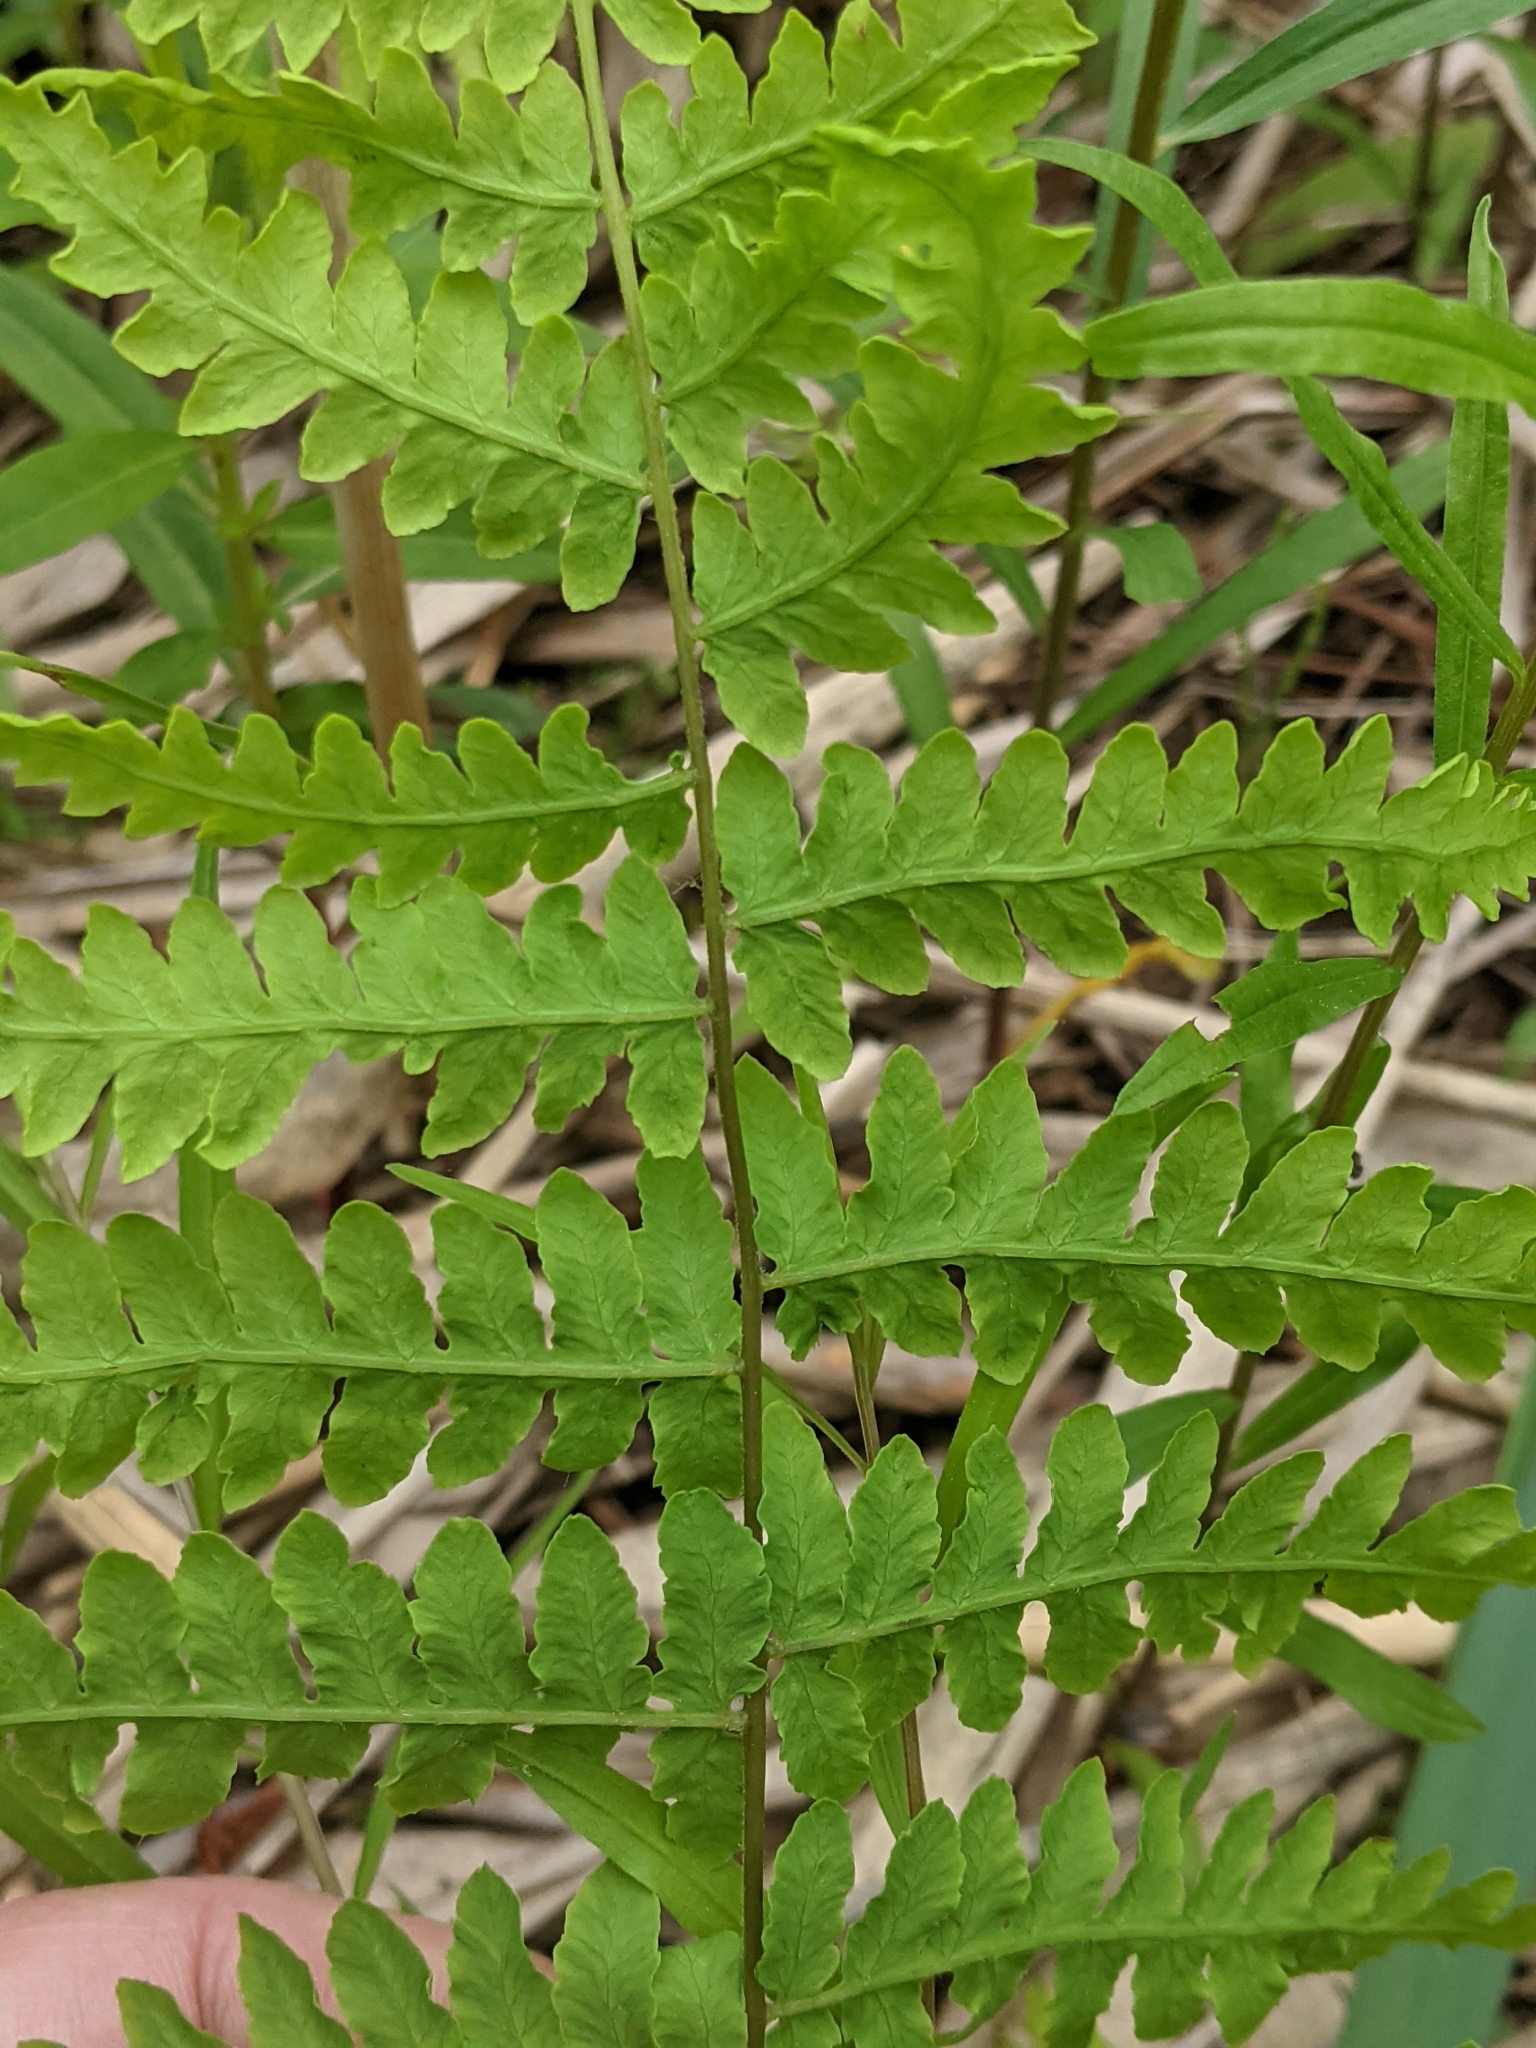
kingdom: Plantae
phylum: Tracheophyta
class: Polypodiopsida
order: Polypodiales
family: Thelypteridaceae
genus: Thelypteris
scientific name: Thelypteris palustris
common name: Marsh fern
